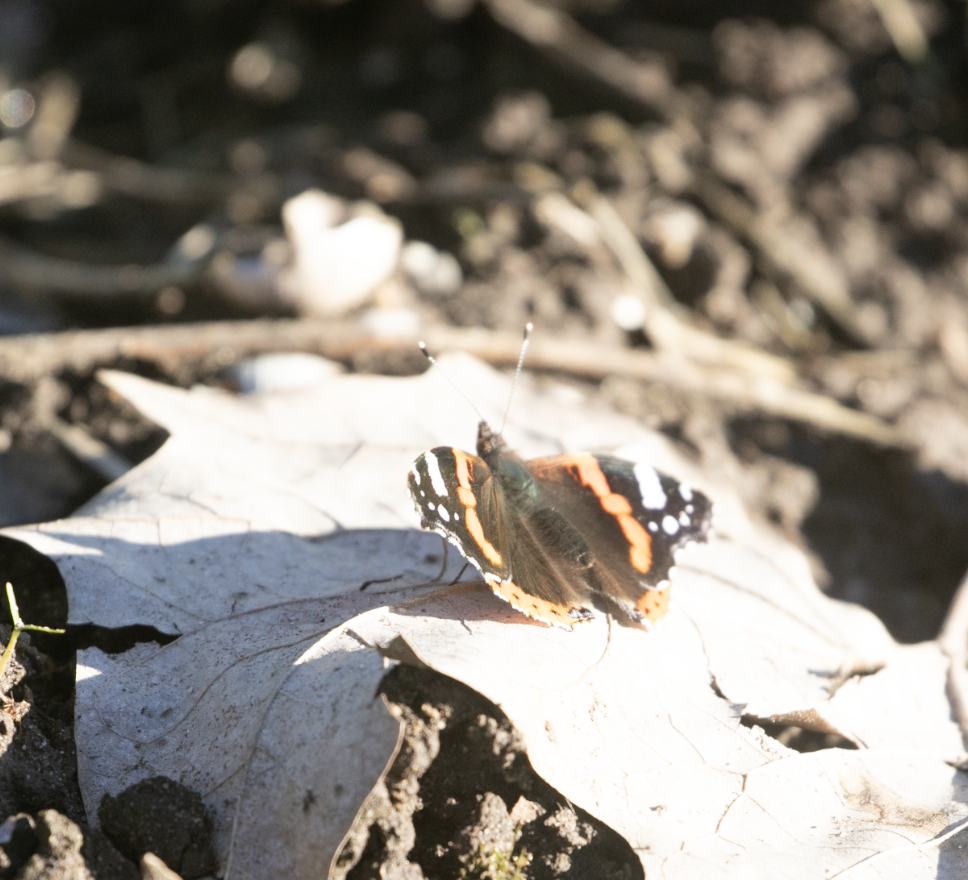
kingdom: Animalia
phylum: Arthropoda
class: Insecta
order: Lepidoptera
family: Nymphalidae
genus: Vanessa
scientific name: Vanessa atalanta
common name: Red admiral
